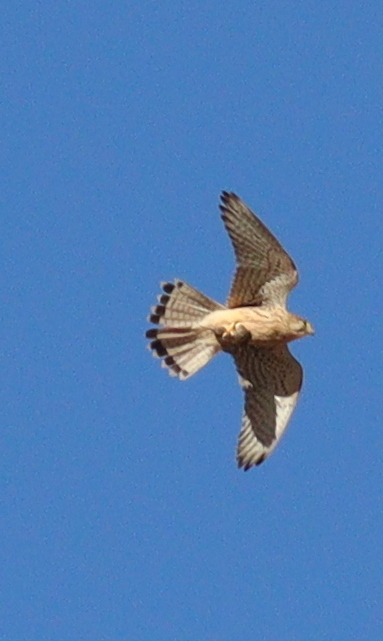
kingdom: Animalia
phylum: Chordata
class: Aves
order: Falconiformes
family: Falconidae
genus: Falco
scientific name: Falco tinnunculus
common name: Common kestrel
